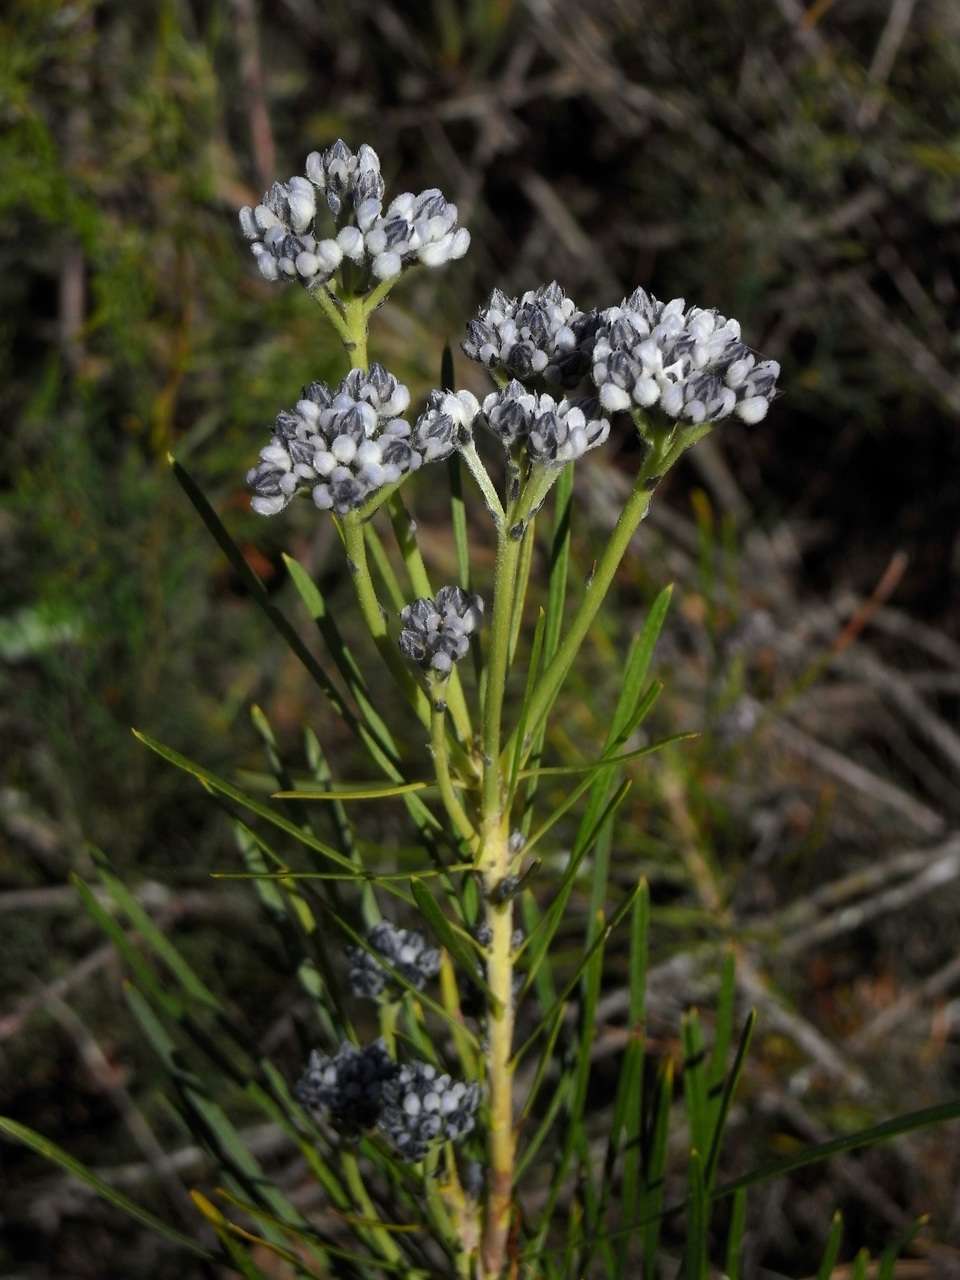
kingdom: Plantae
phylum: Tracheophyta
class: Magnoliopsida
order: Proteales
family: Proteaceae
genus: Conospermum
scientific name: Conospermum mitchellii
